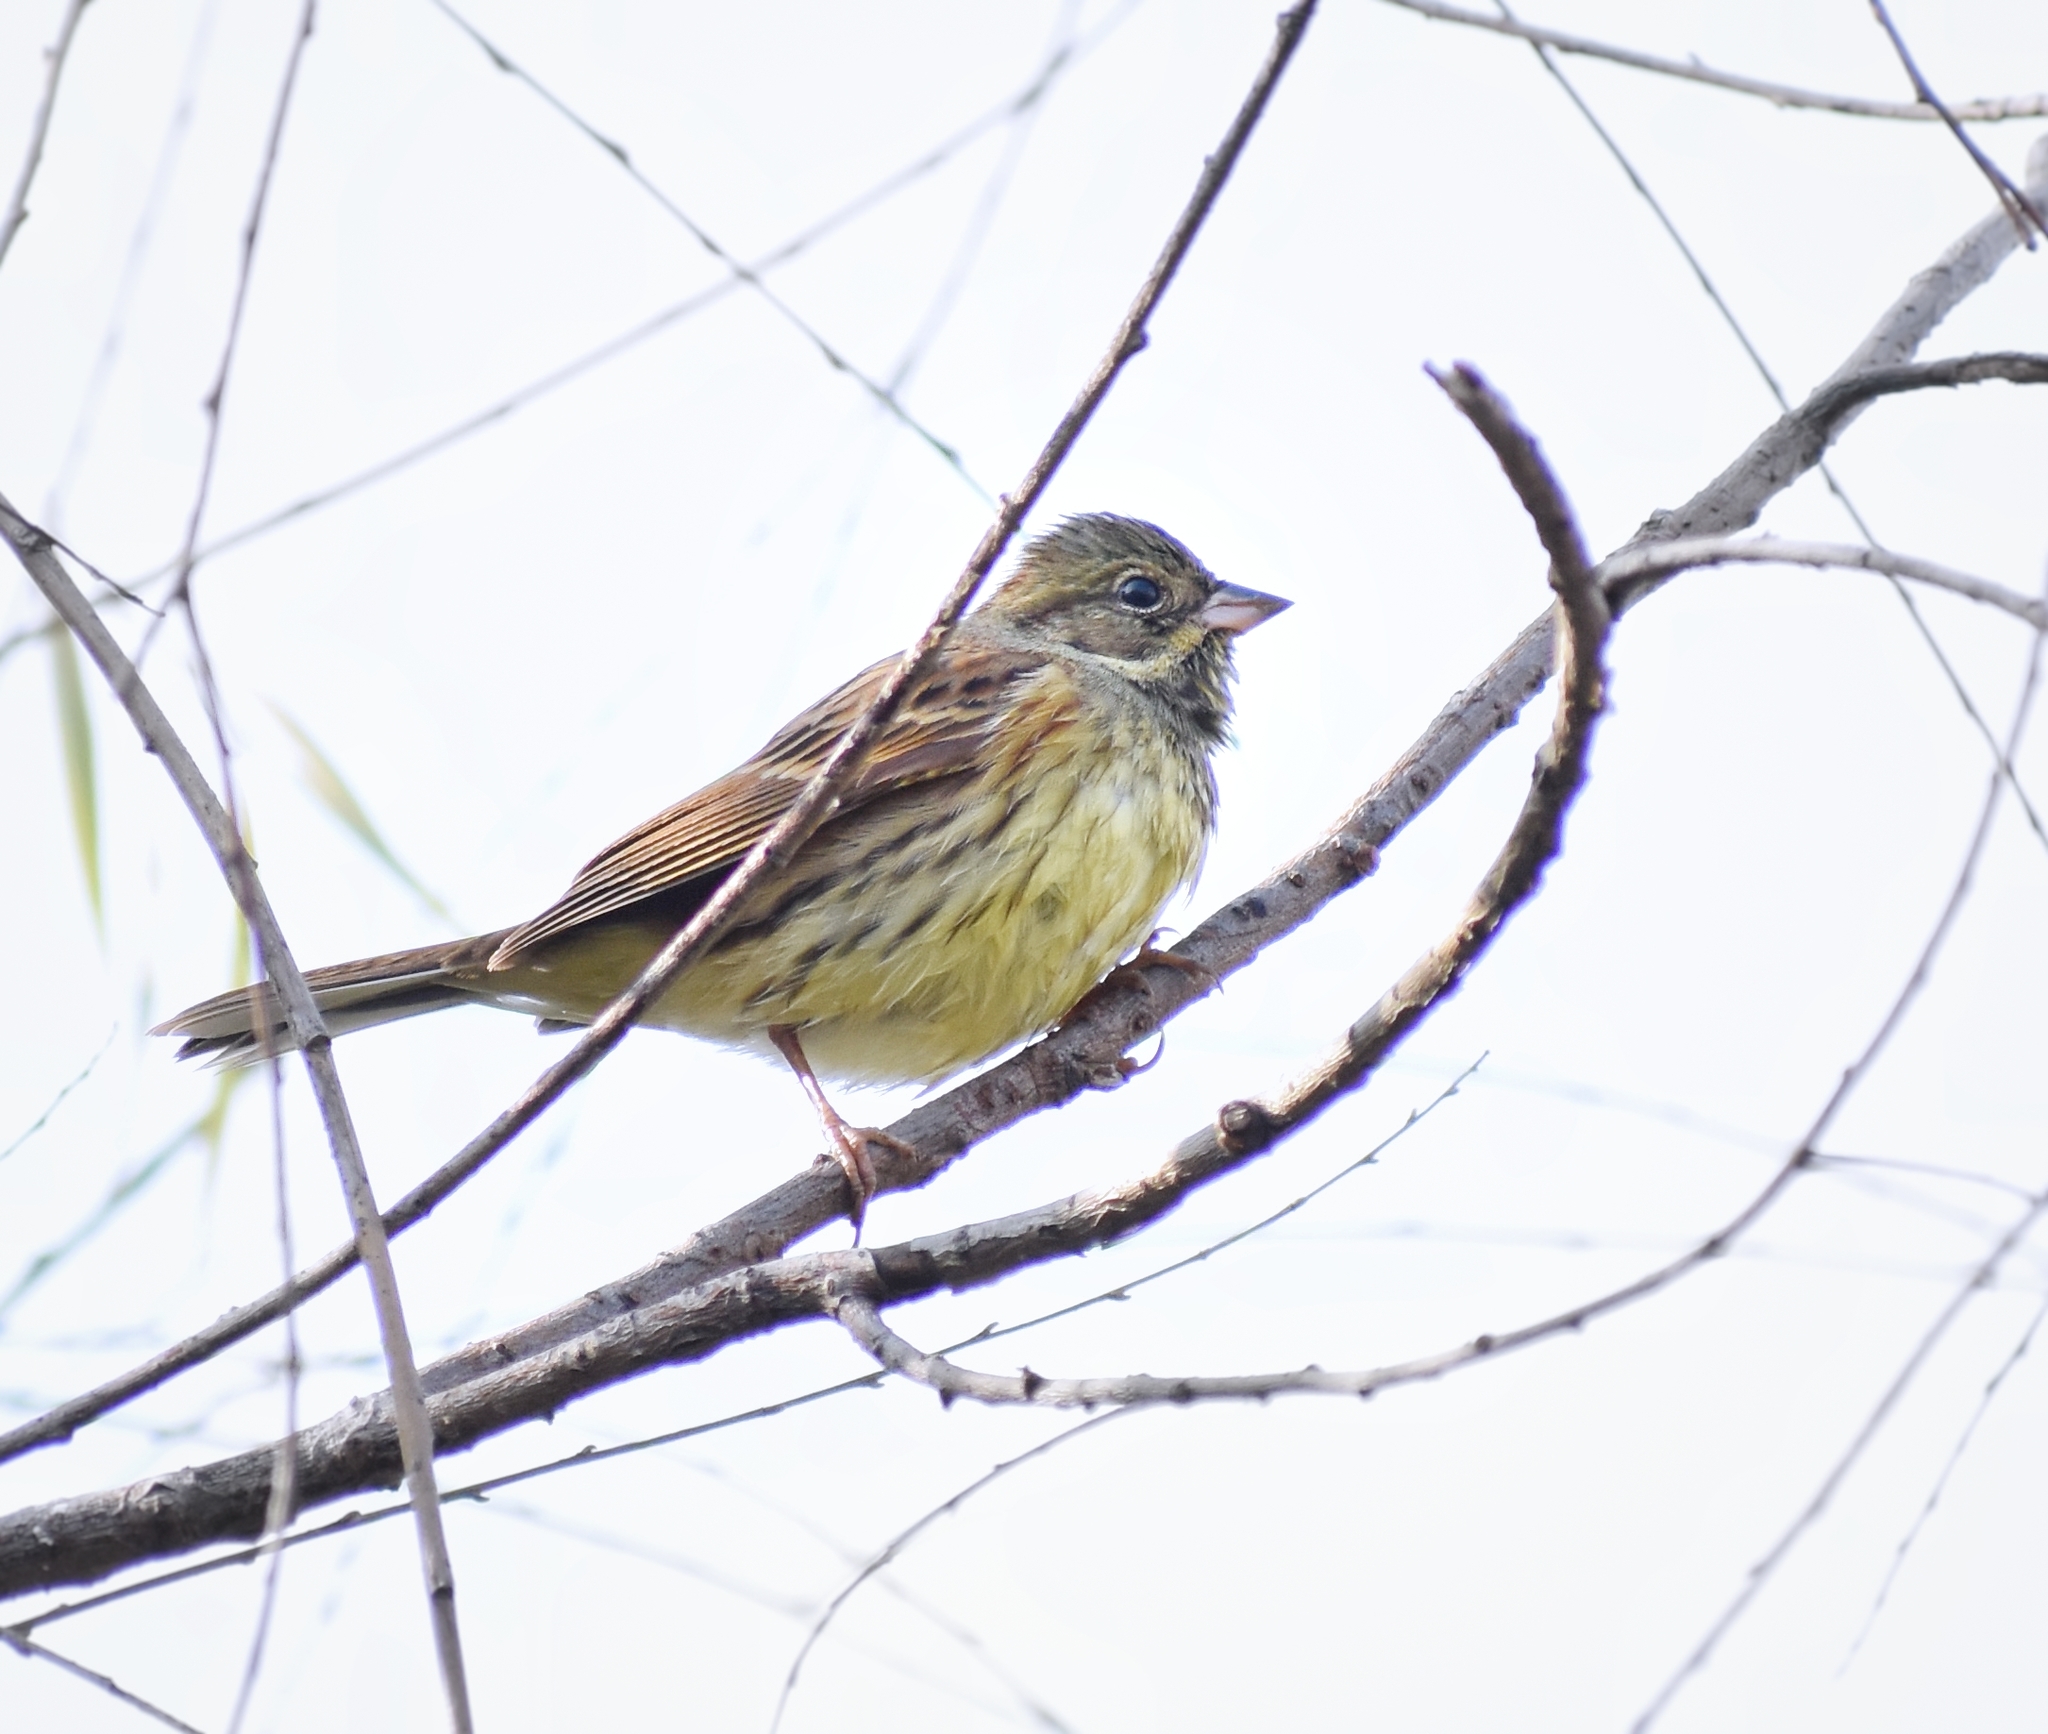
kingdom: Animalia
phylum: Chordata
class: Aves
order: Passeriformes
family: Emberizidae
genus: Emberiza
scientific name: Emberiza spodocephala
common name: Black-faced bunting
